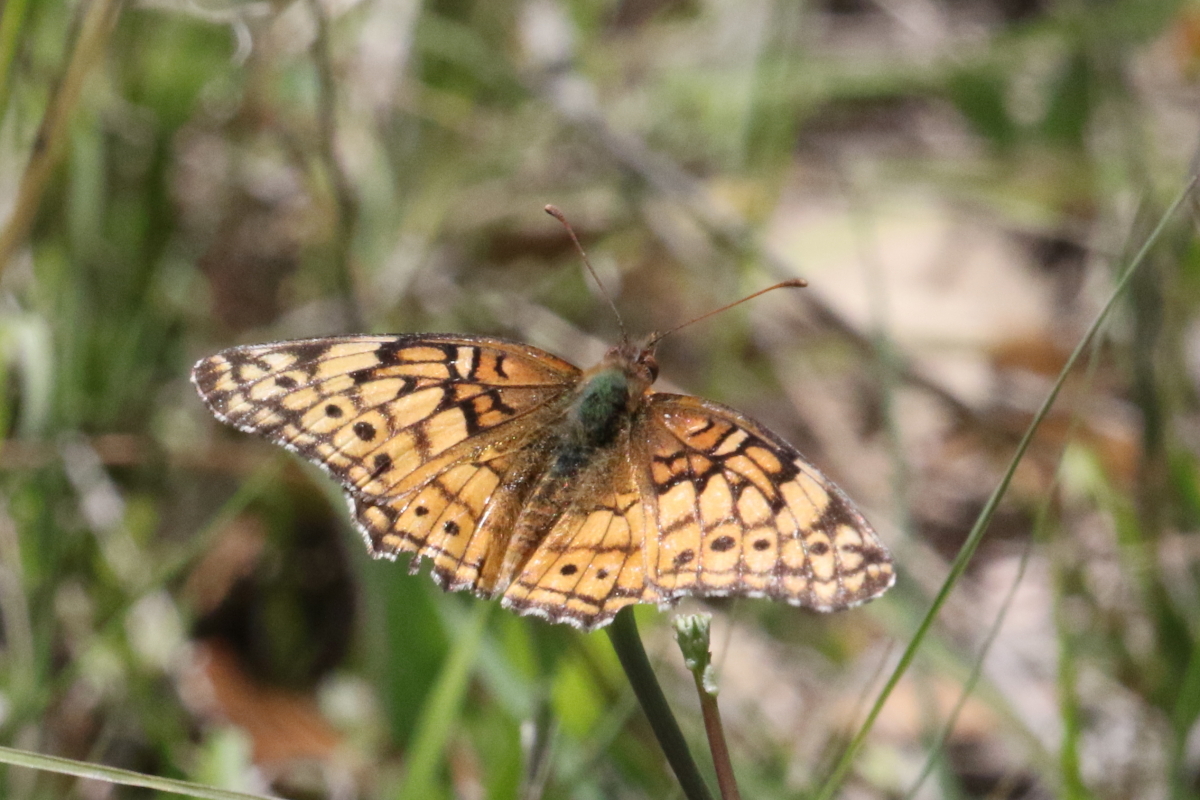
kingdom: Animalia
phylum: Arthropoda
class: Insecta
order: Lepidoptera
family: Nymphalidae
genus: Euptoieta
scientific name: Euptoieta claudia
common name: Variegated fritillary
